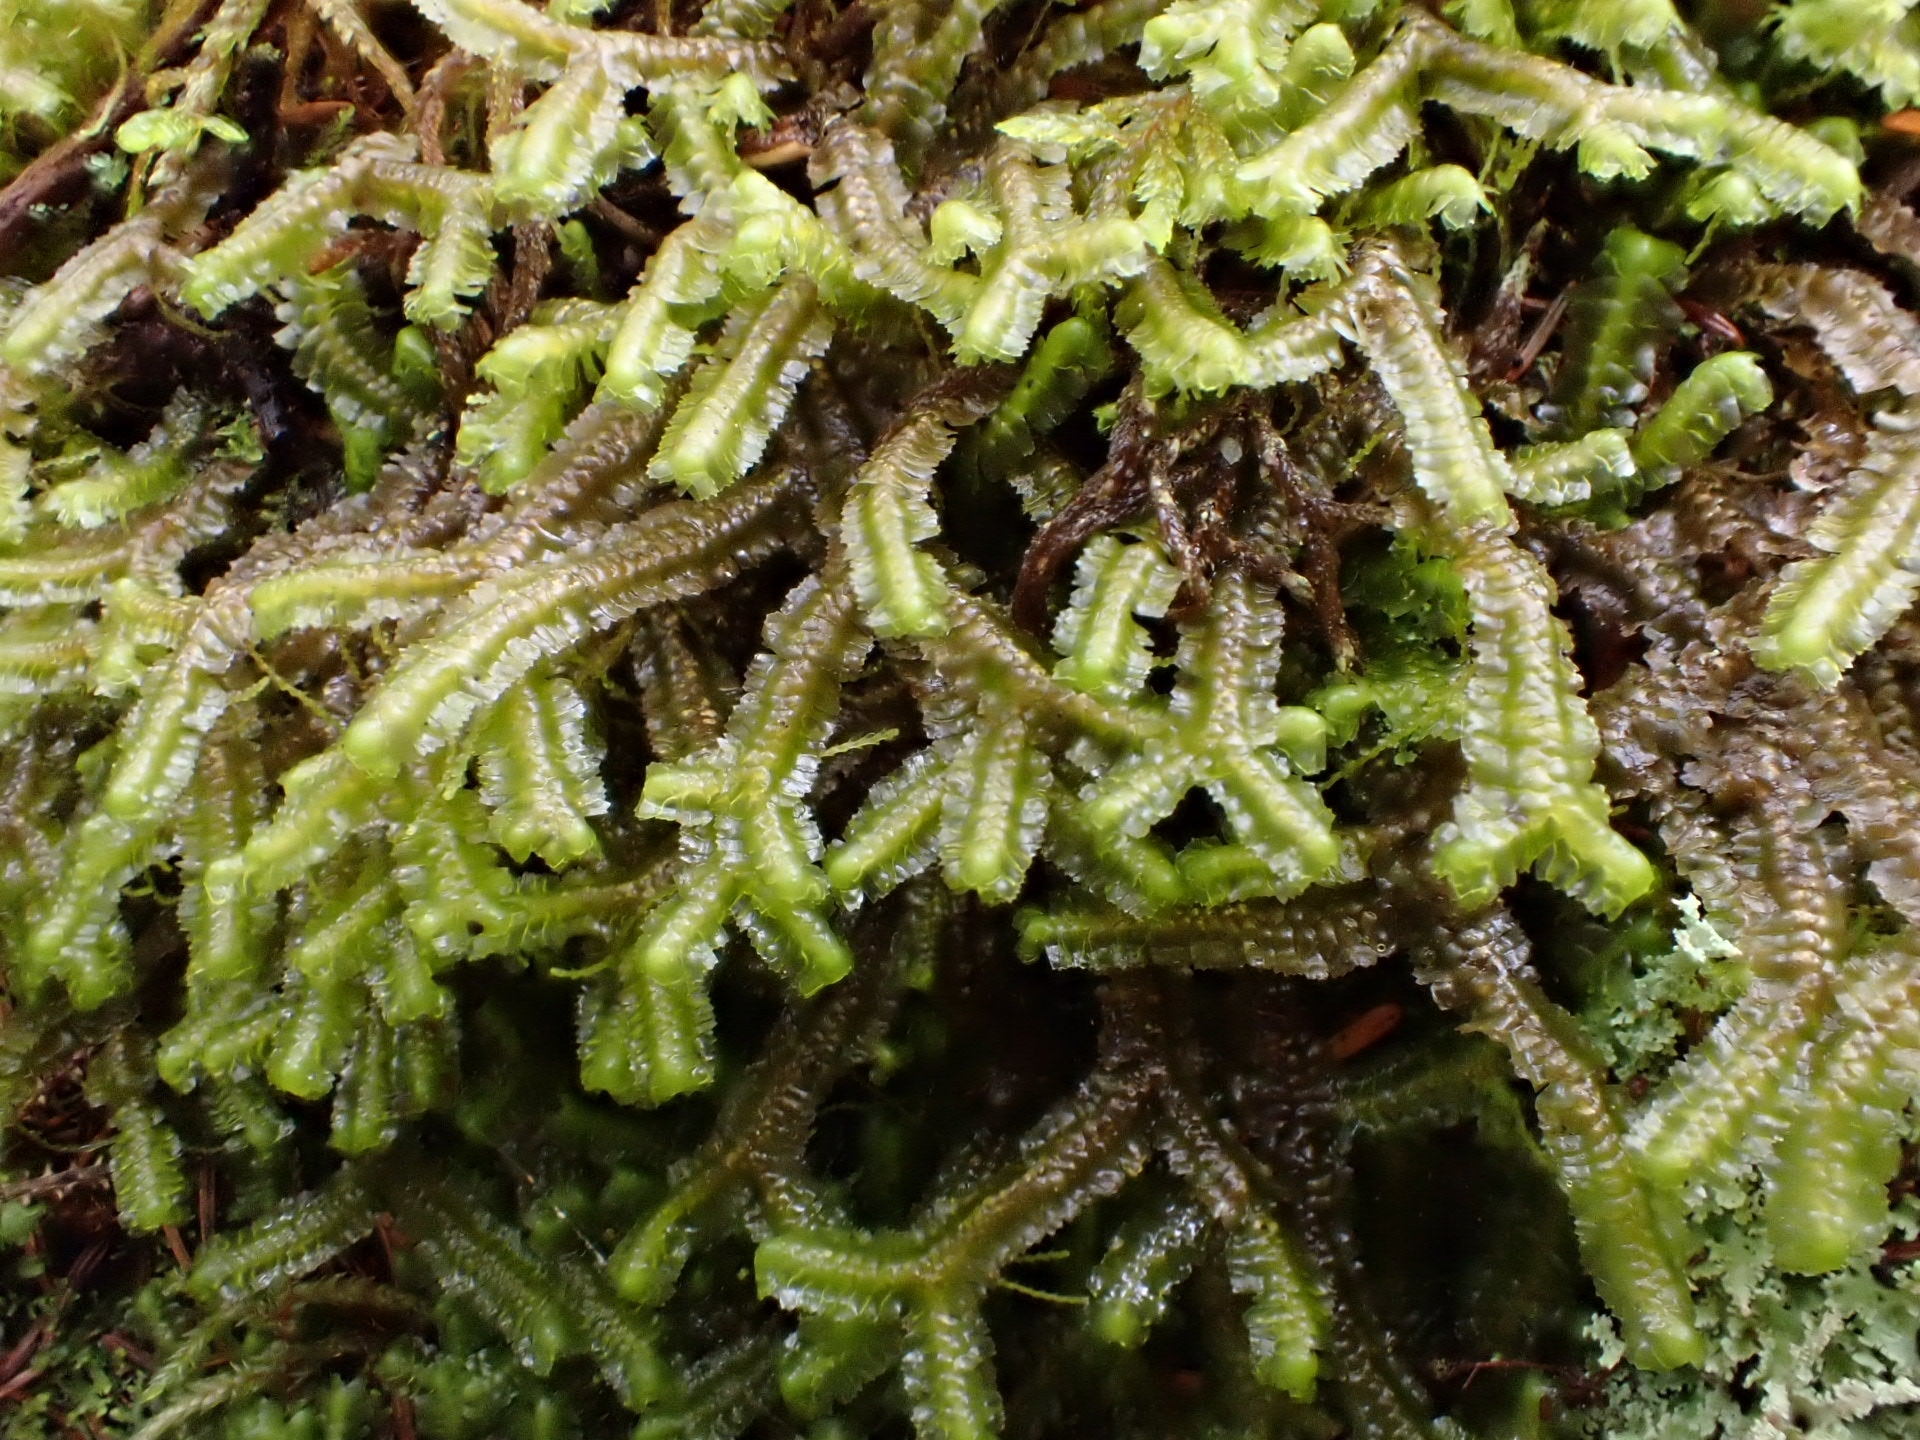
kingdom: Plantae
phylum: Marchantiophyta
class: Jungermanniopsida
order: Jungermanniales
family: Lepidoziaceae
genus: Bazzania
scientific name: Bazzania trilobata
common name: Three-lobed whipwort
